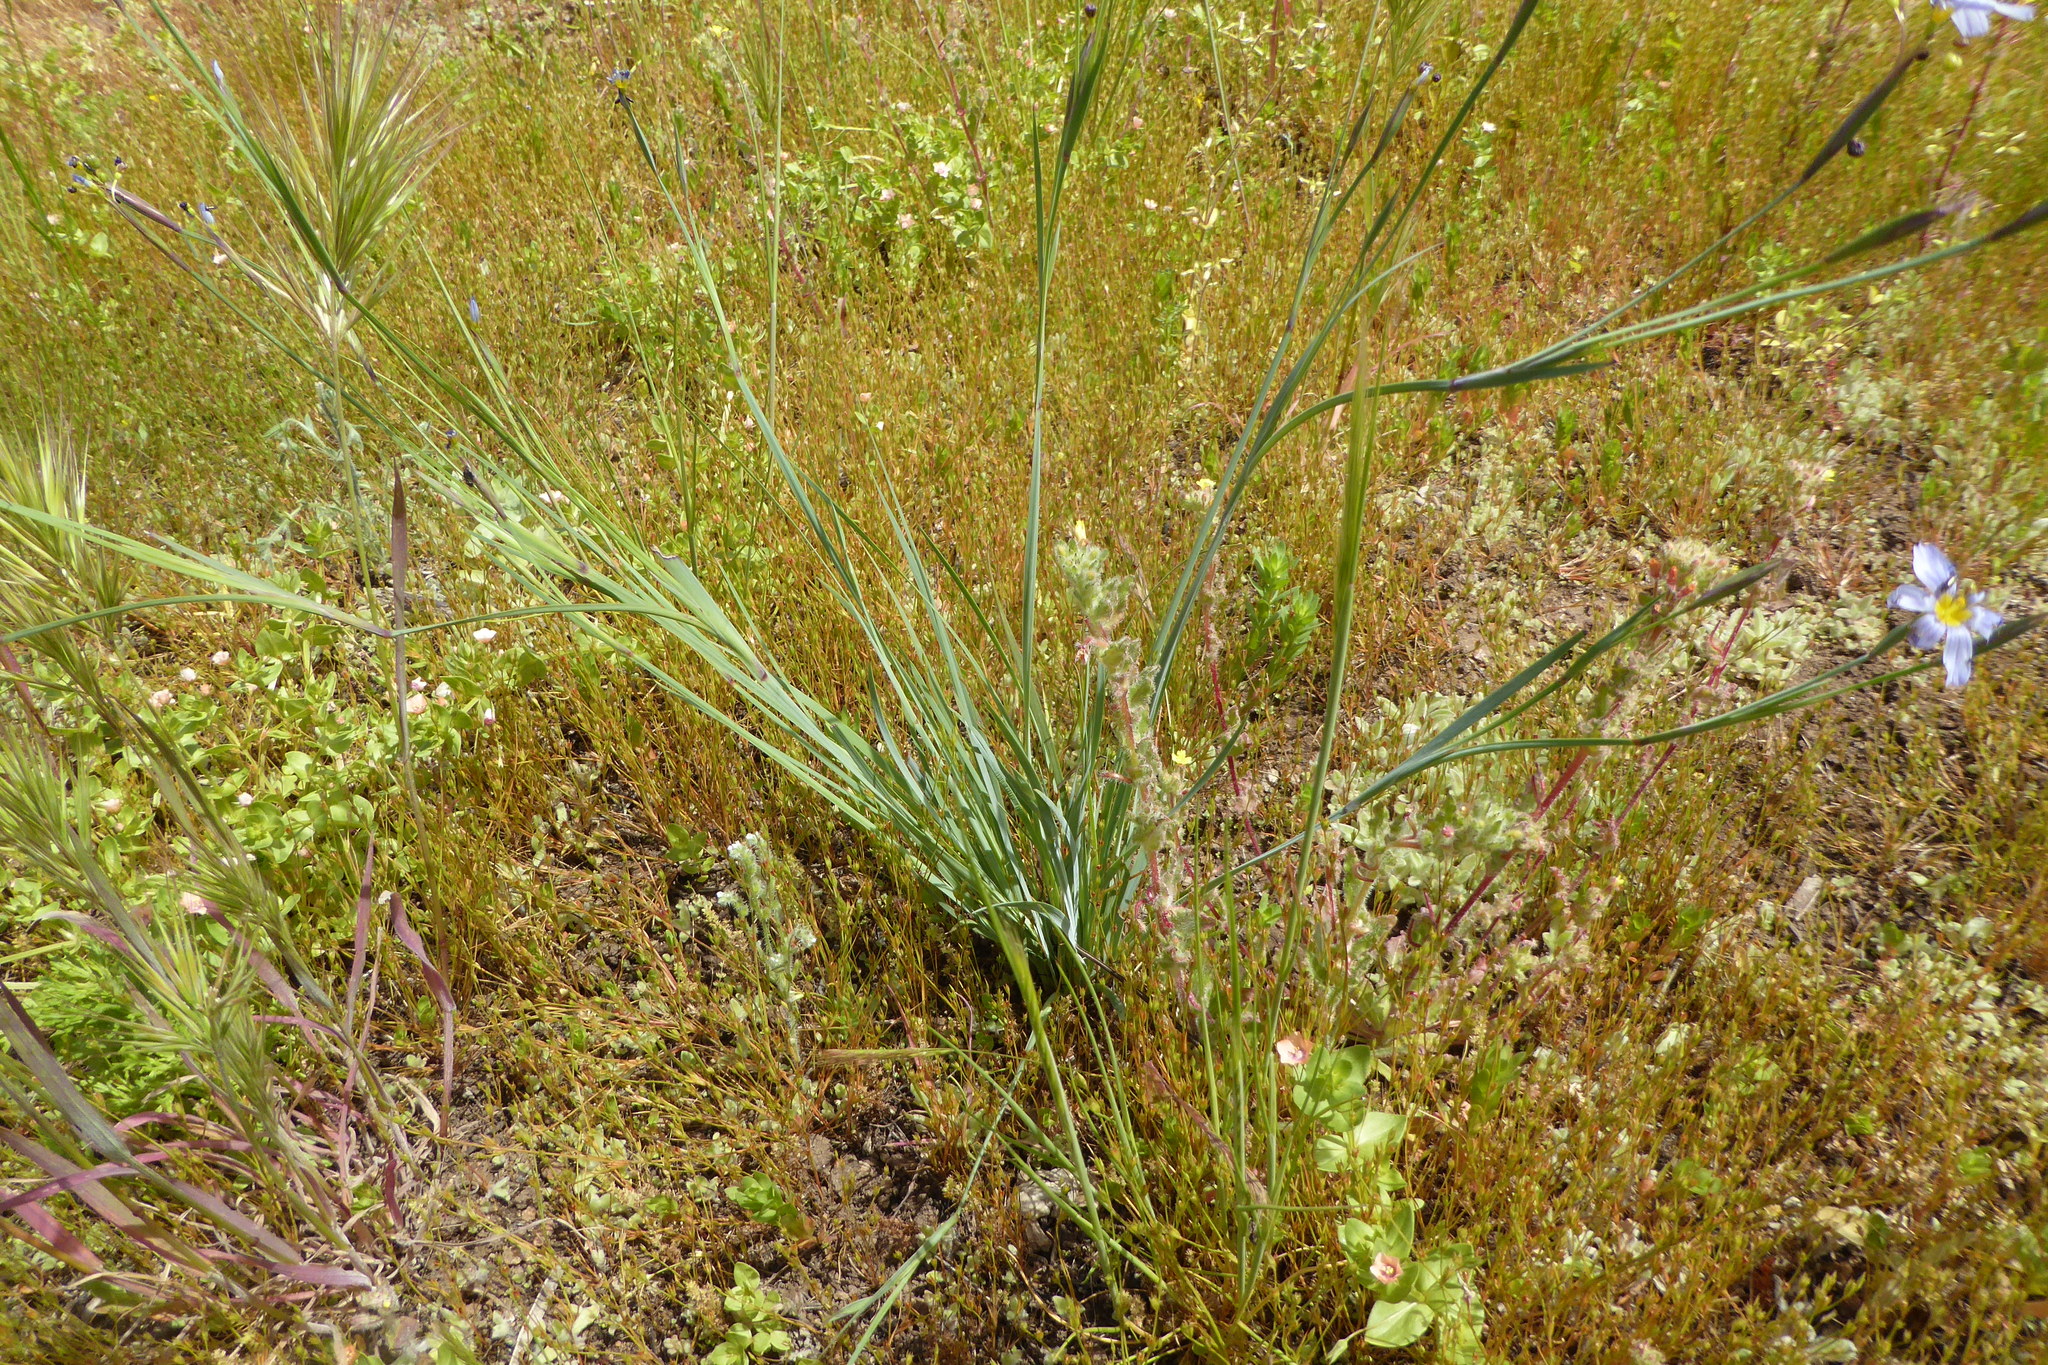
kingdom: Plantae
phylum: Tracheophyta
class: Liliopsida
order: Asparagales
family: Iridaceae
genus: Sisyrinchium
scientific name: Sisyrinchium bellum
